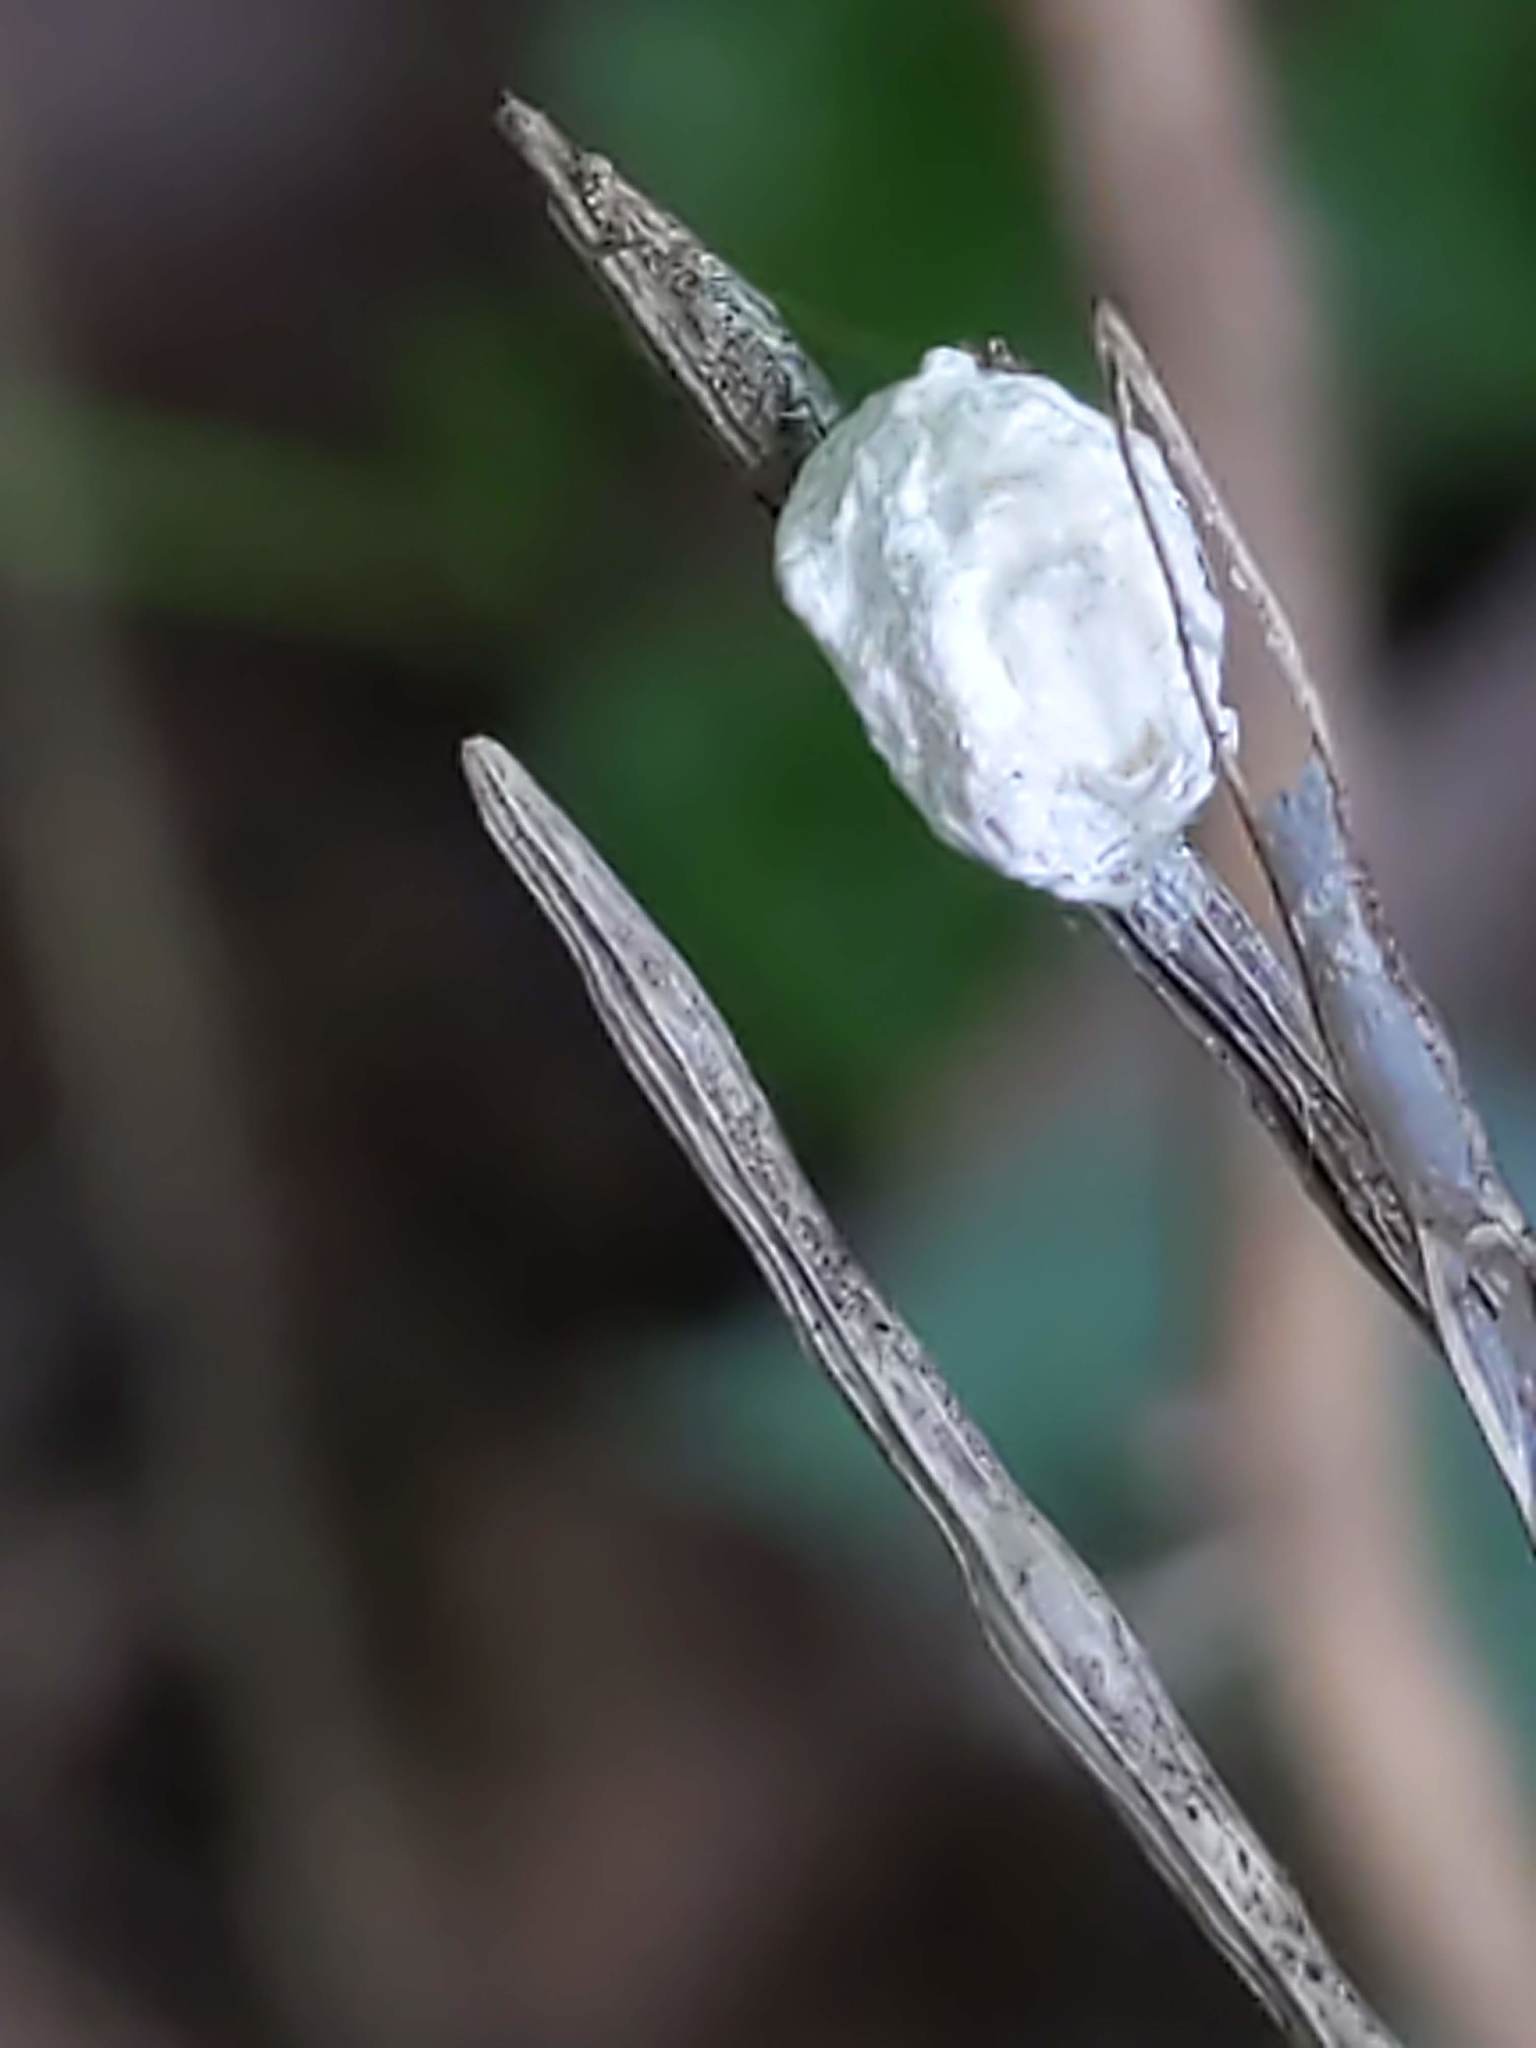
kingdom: Animalia
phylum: Arthropoda
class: Insecta
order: Lepidoptera
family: Epipyropidae
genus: Fulgoraecia
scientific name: Fulgoraecia exigua
